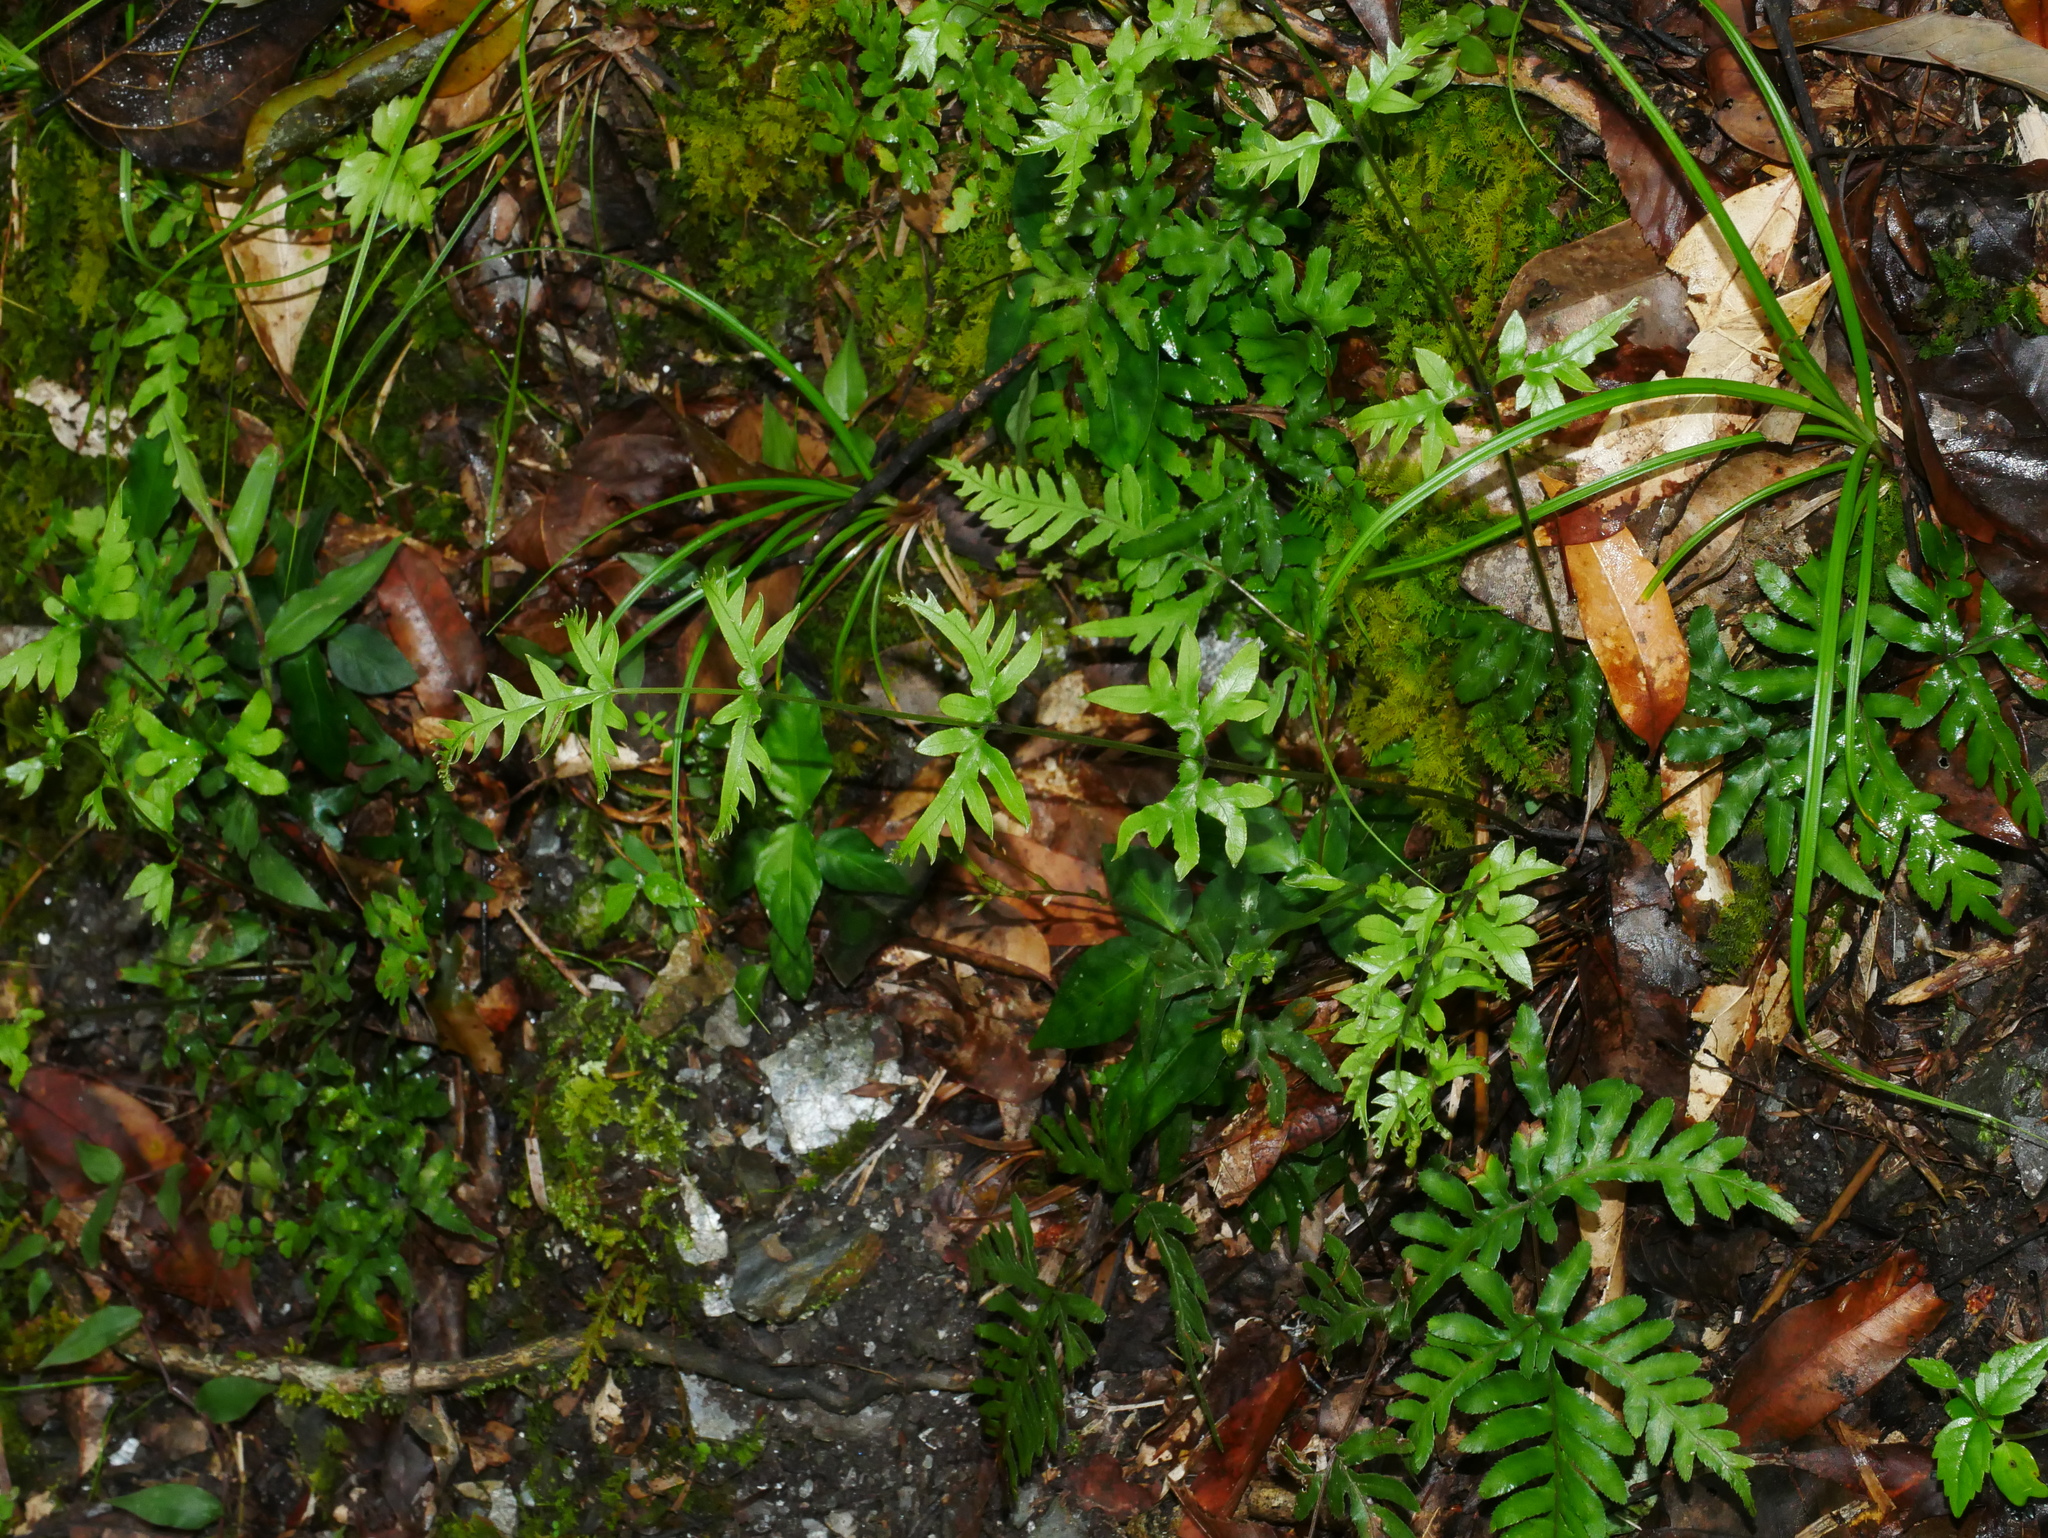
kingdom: Plantae
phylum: Tracheophyta
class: Polypodiopsida
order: Polypodiales
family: Pteridaceae
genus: Pteris
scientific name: Pteris dispar
